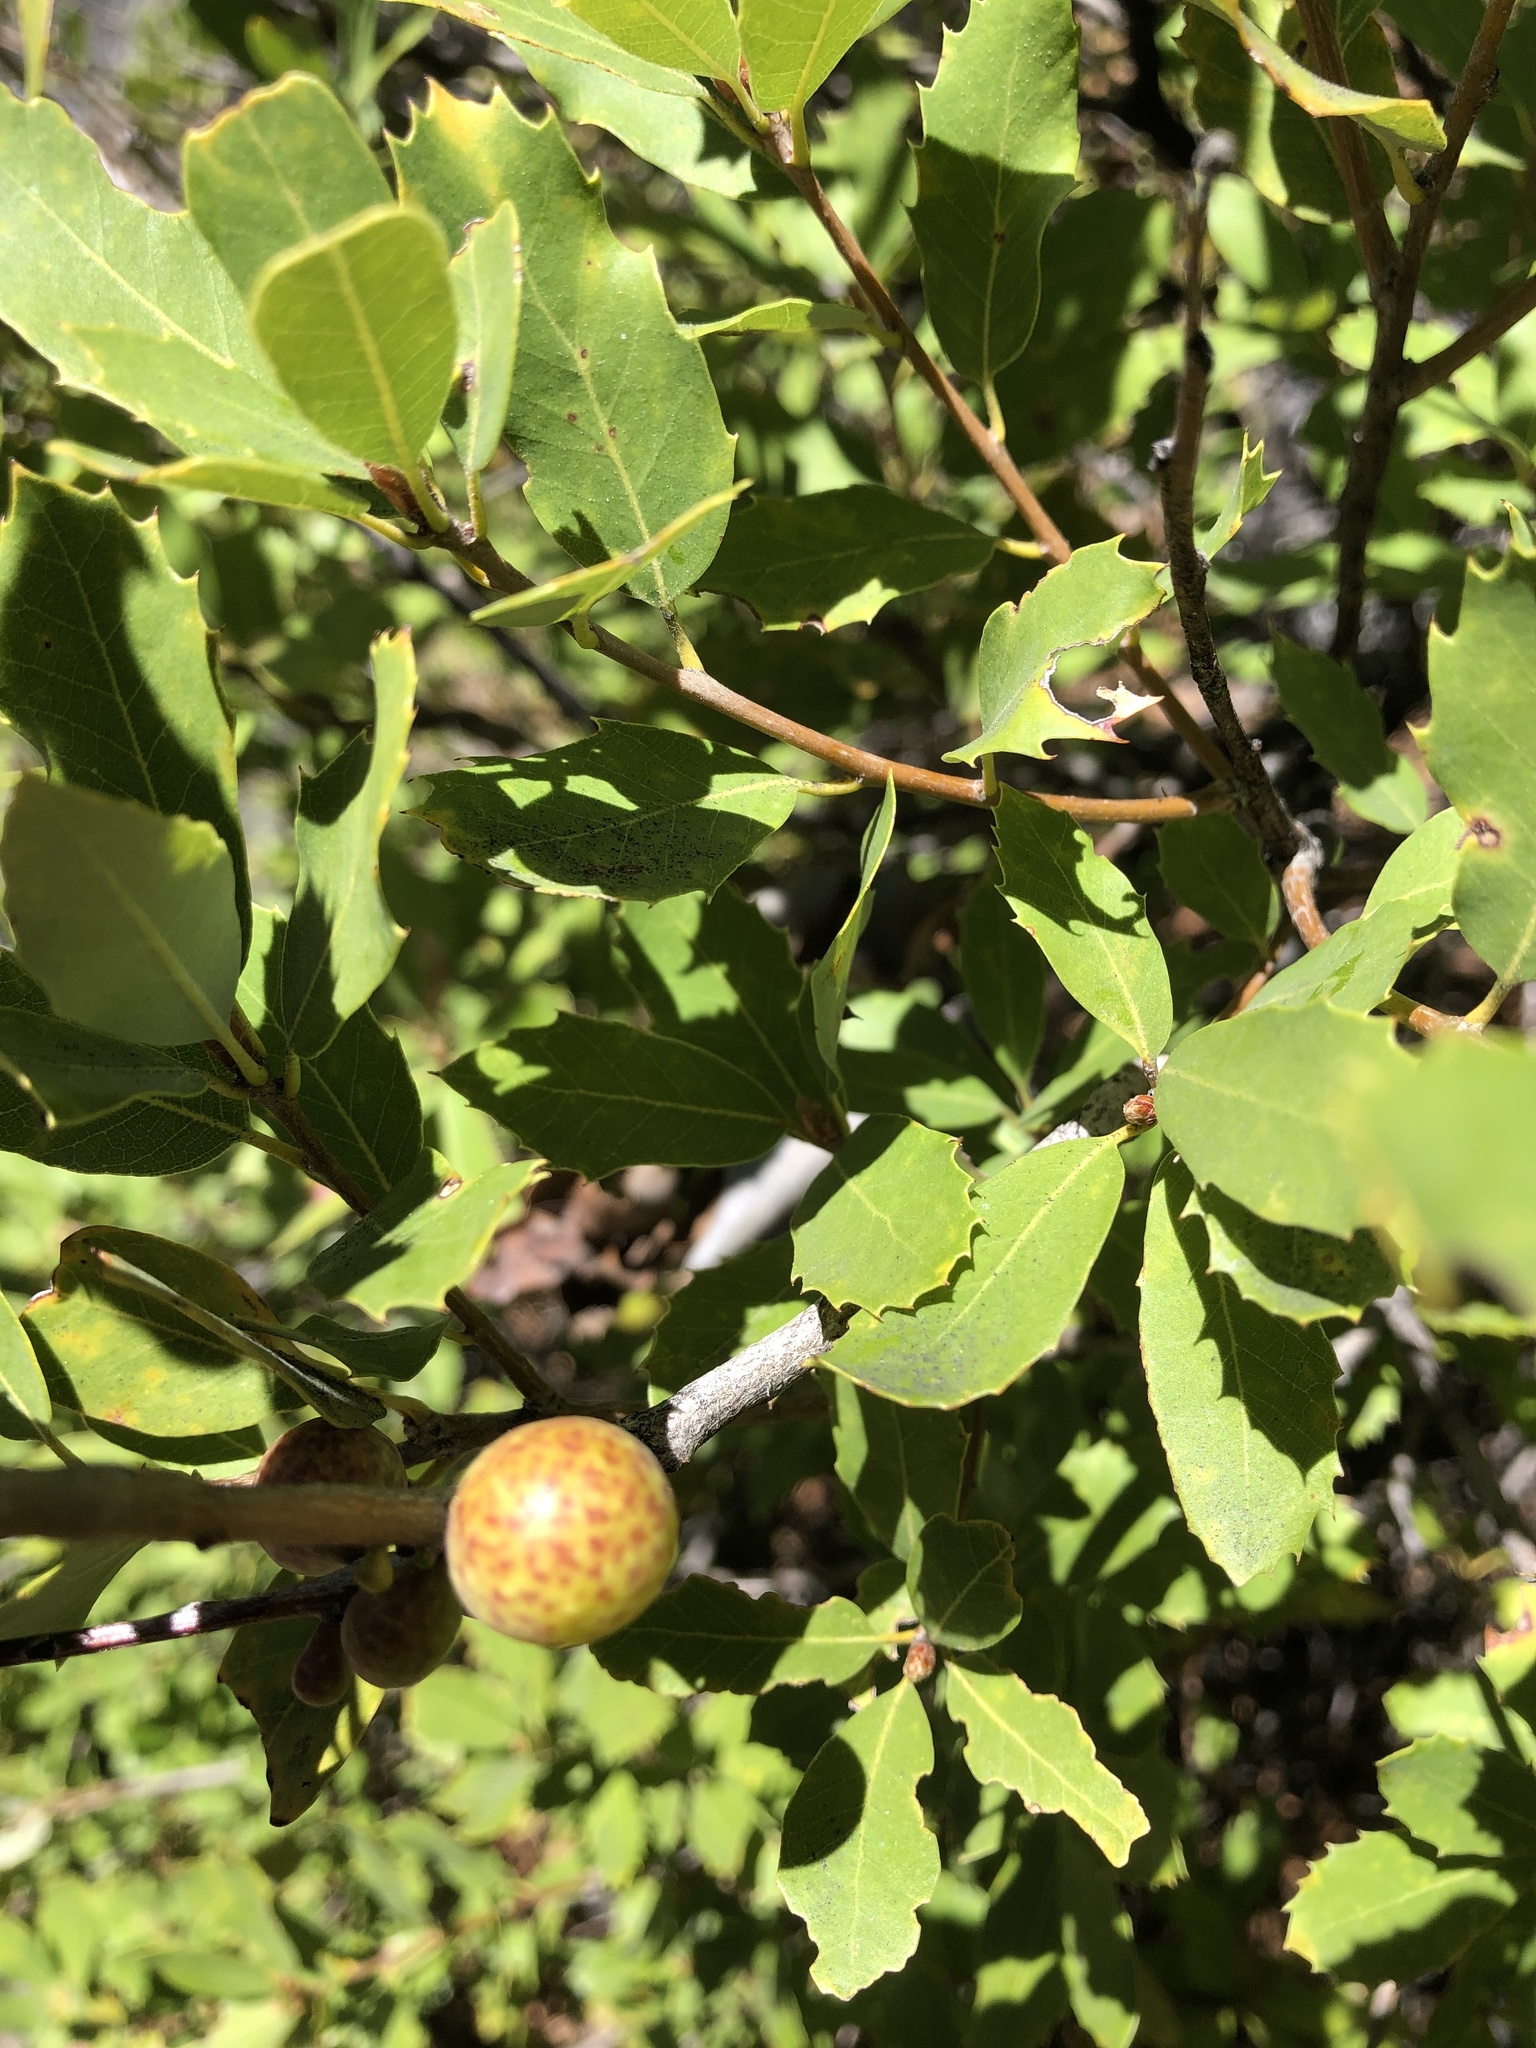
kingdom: Plantae
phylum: Tracheophyta
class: Magnoliopsida
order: Fagales
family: Fagaceae
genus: Quercus
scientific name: Quercus vacciniifolia
